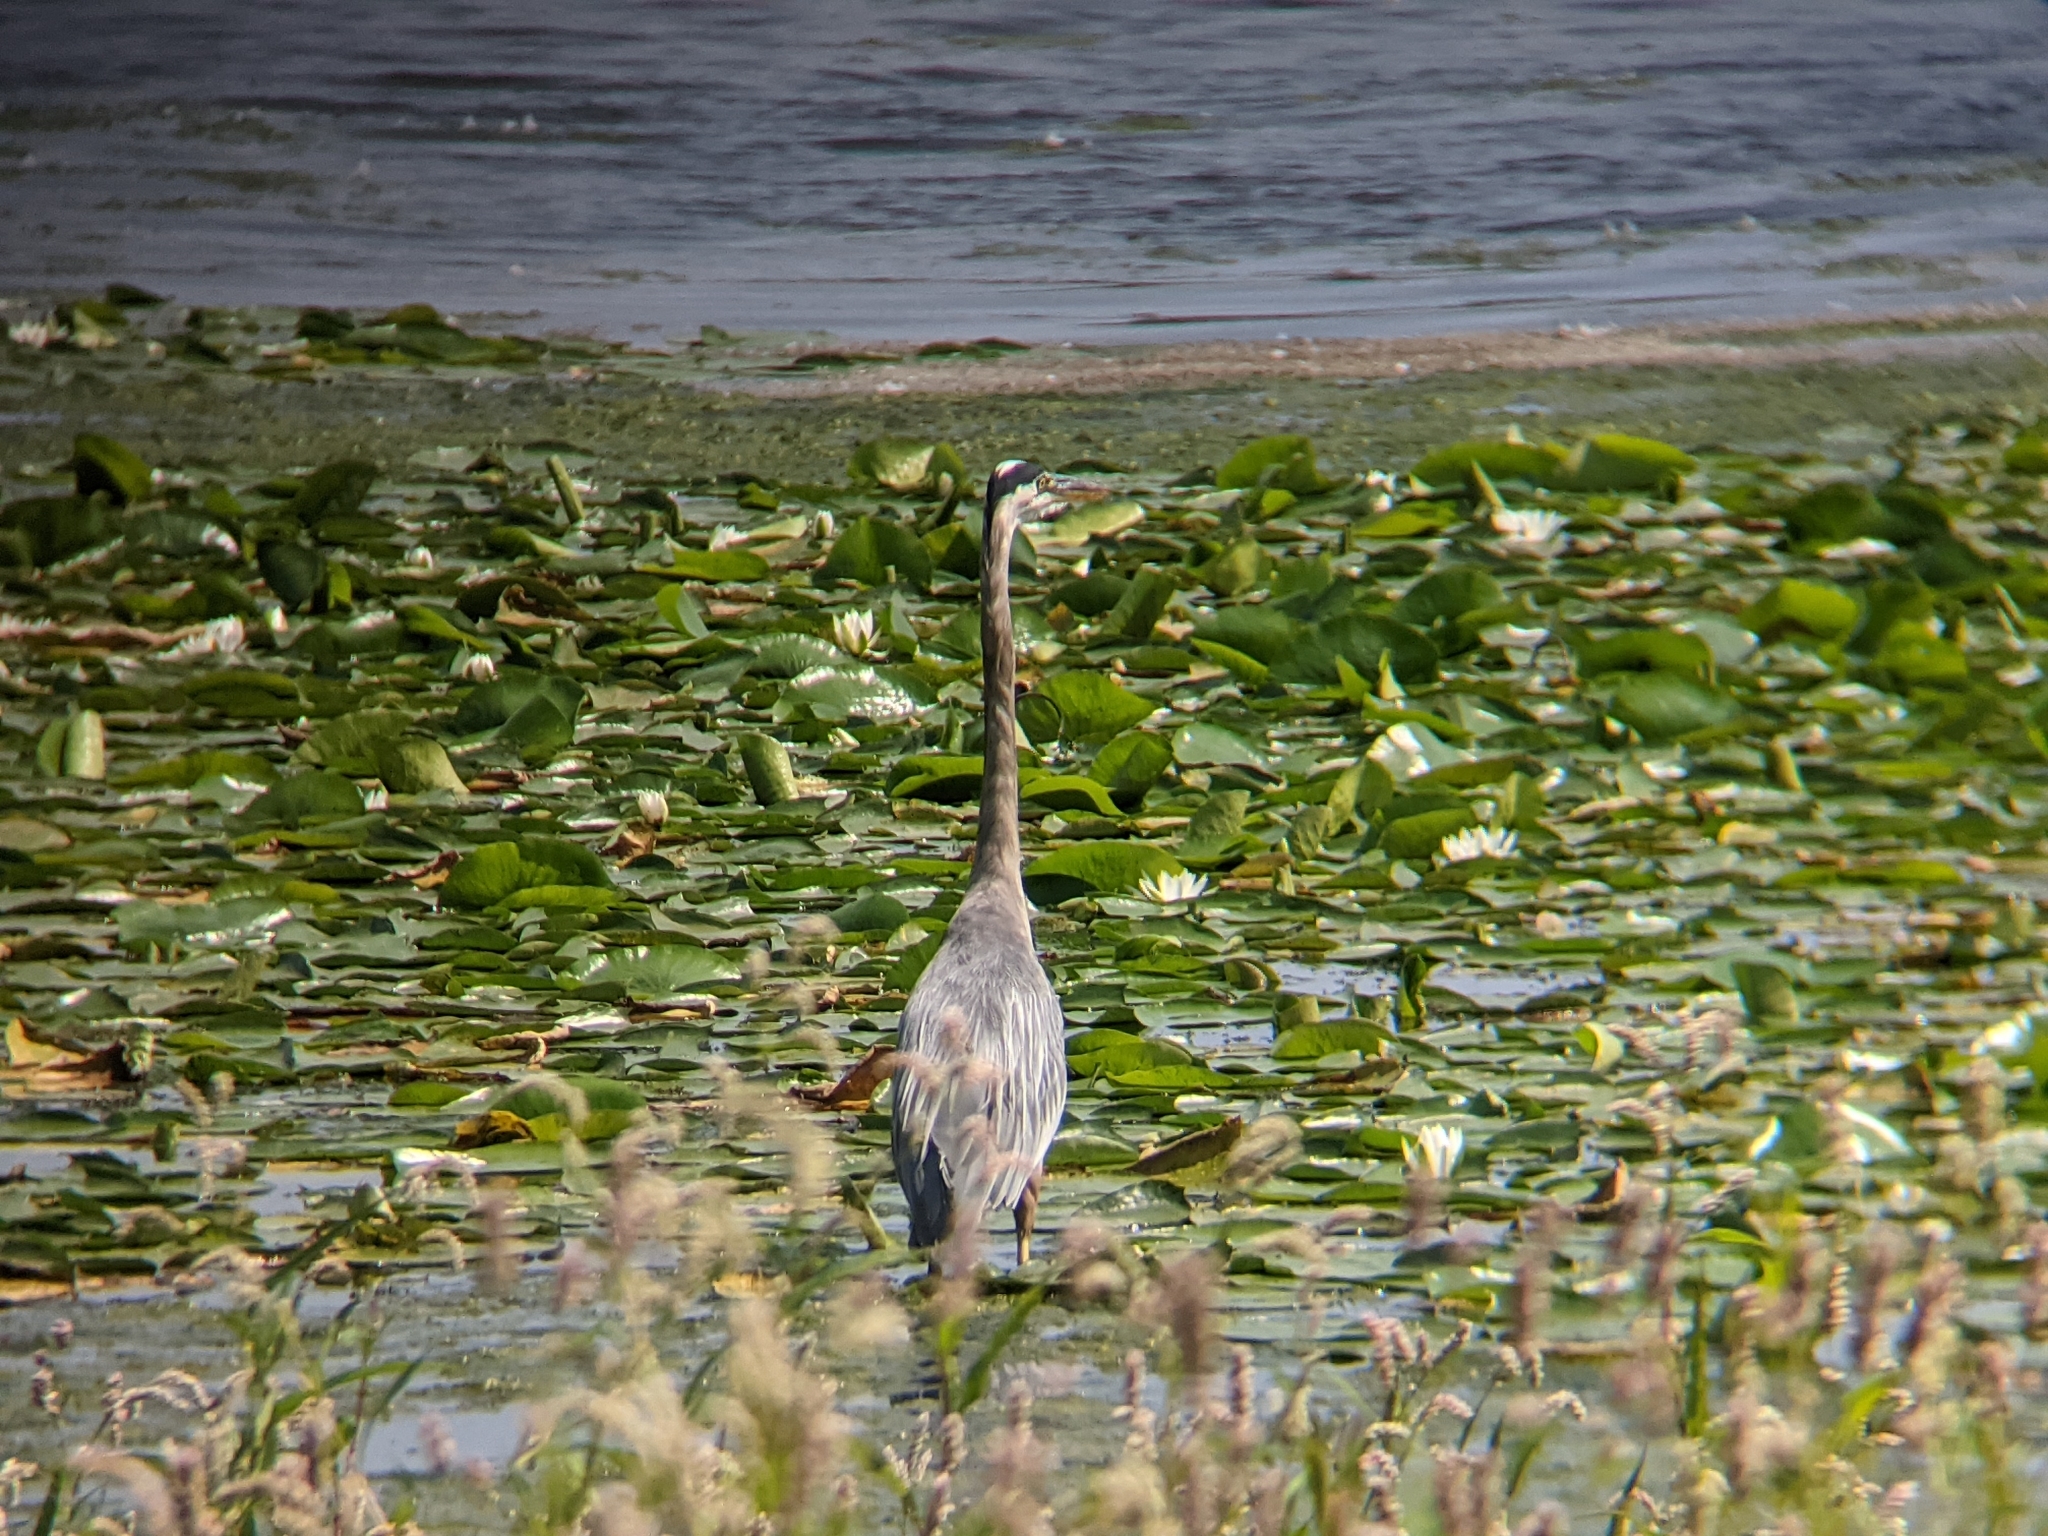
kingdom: Animalia
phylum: Chordata
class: Aves
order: Pelecaniformes
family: Ardeidae
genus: Ardea
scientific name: Ardea herodias
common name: Great blue heron
